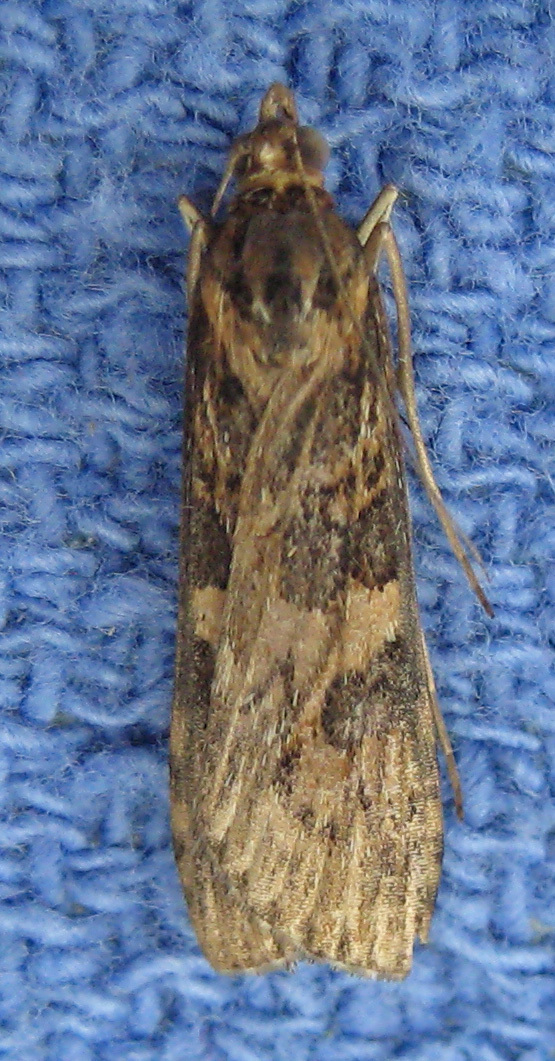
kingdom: Animalia
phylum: Arthropoda
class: Insecta
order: Lepidoptera
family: Crambidae
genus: Nomophila
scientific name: Nomophila nearctica
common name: American rush veneer
